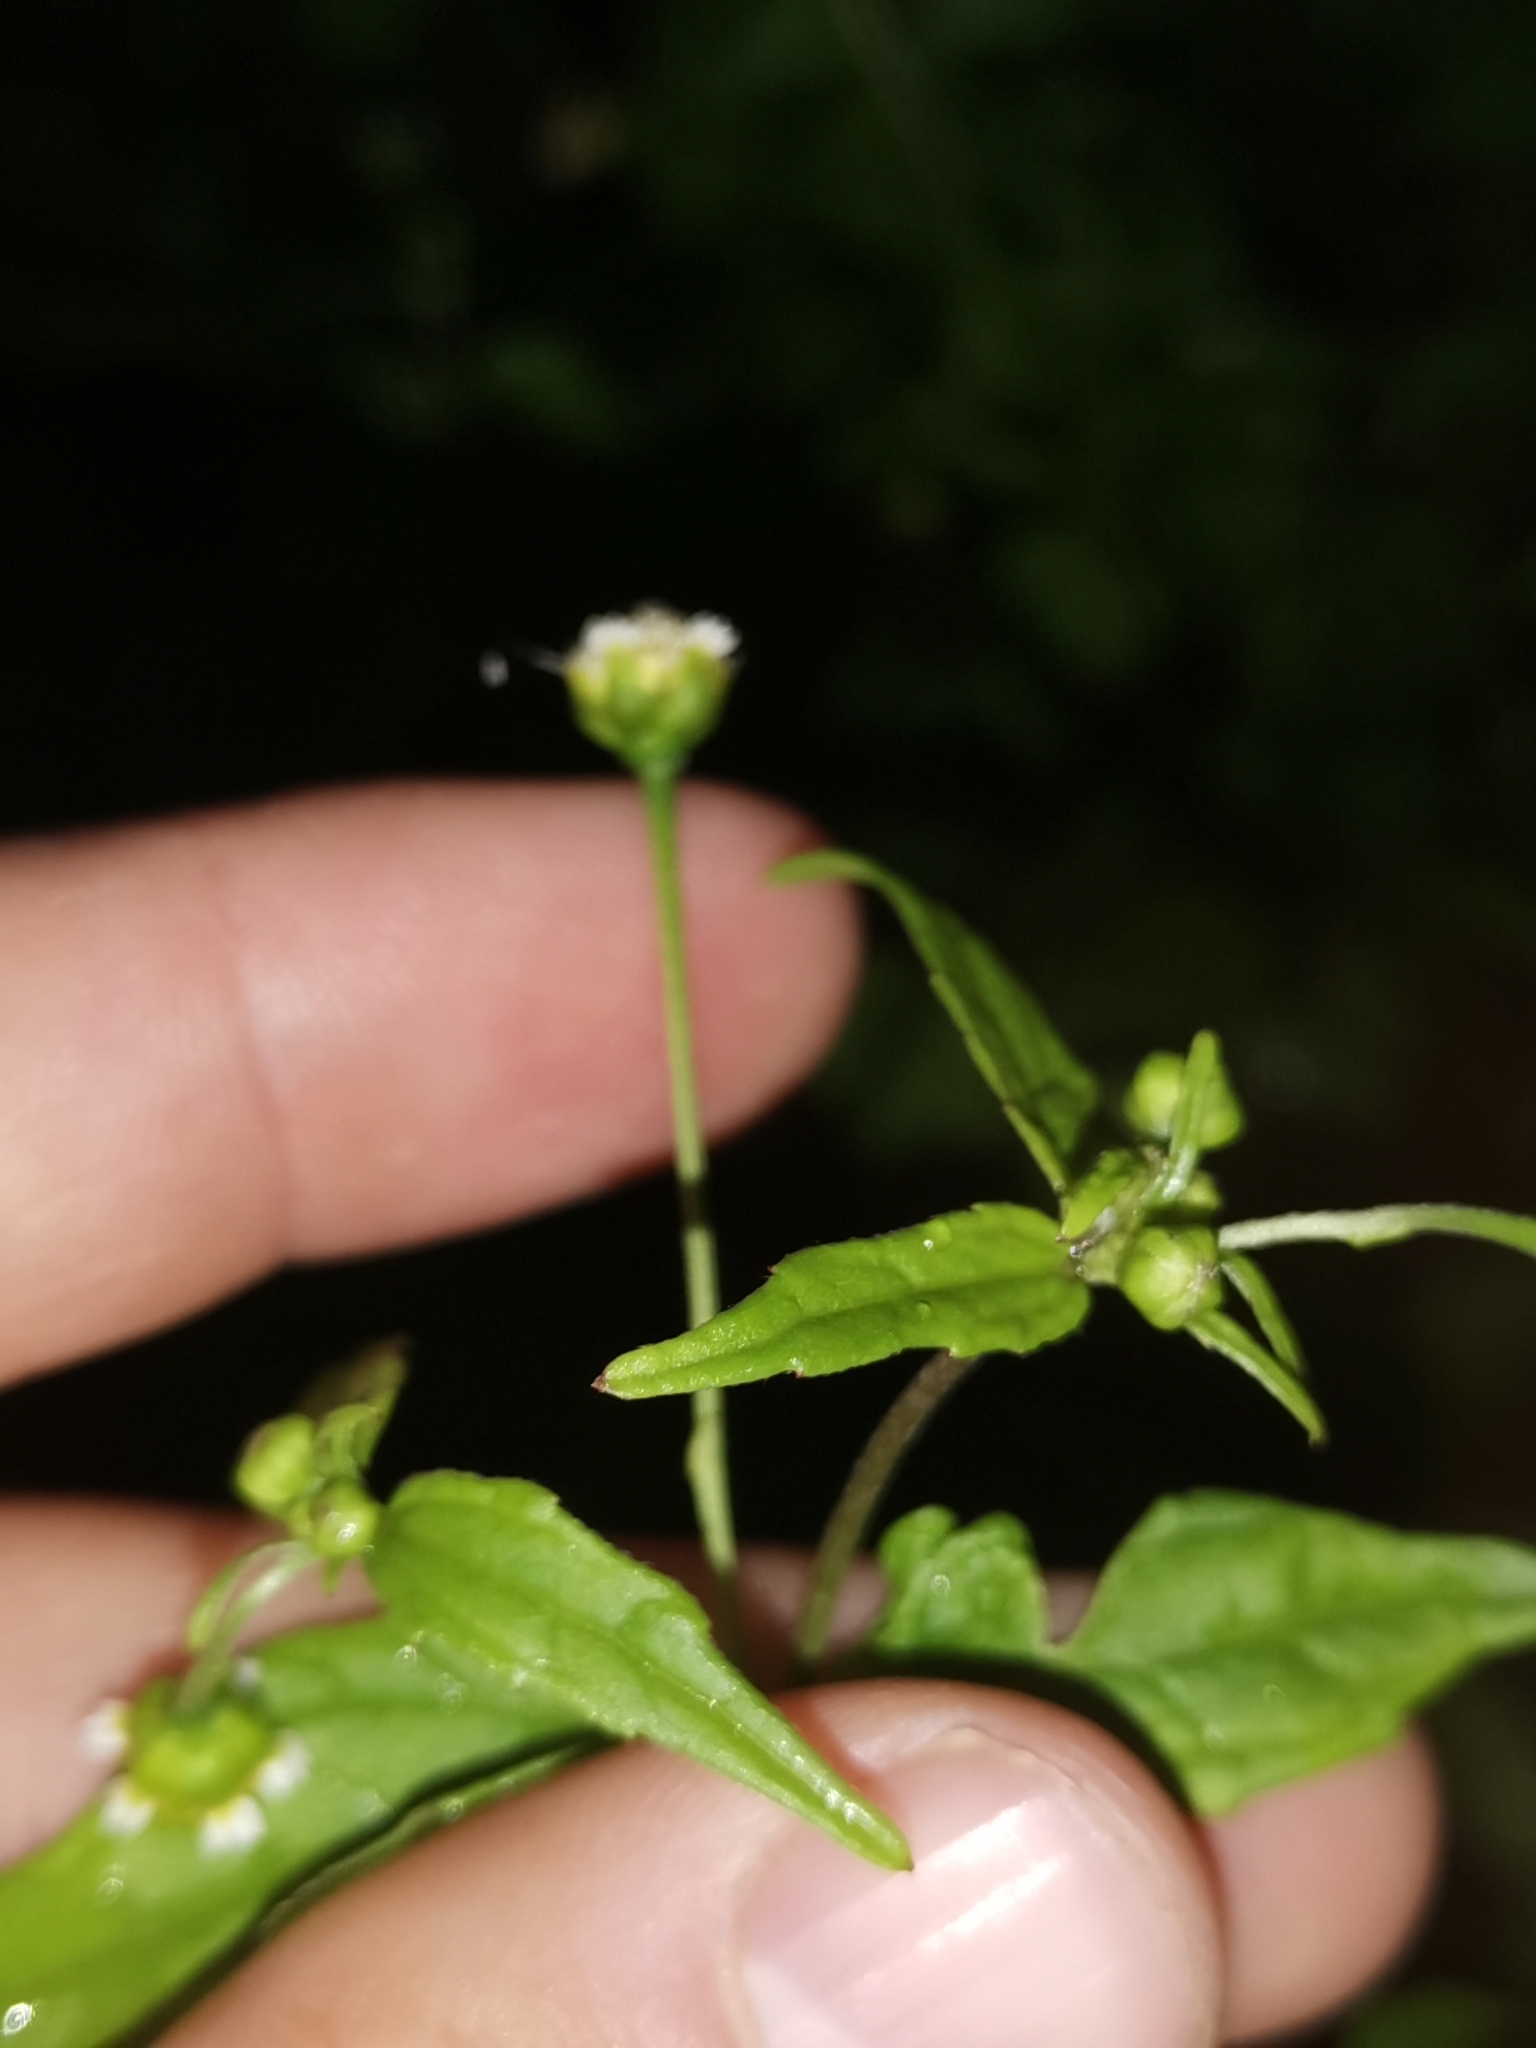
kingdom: Plantae
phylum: Tracheophyta
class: Magnoliopsida
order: Asterales
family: Asteraceae
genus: Galinsoga
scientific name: Galinsoga parviflora
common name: Gallant soldier
